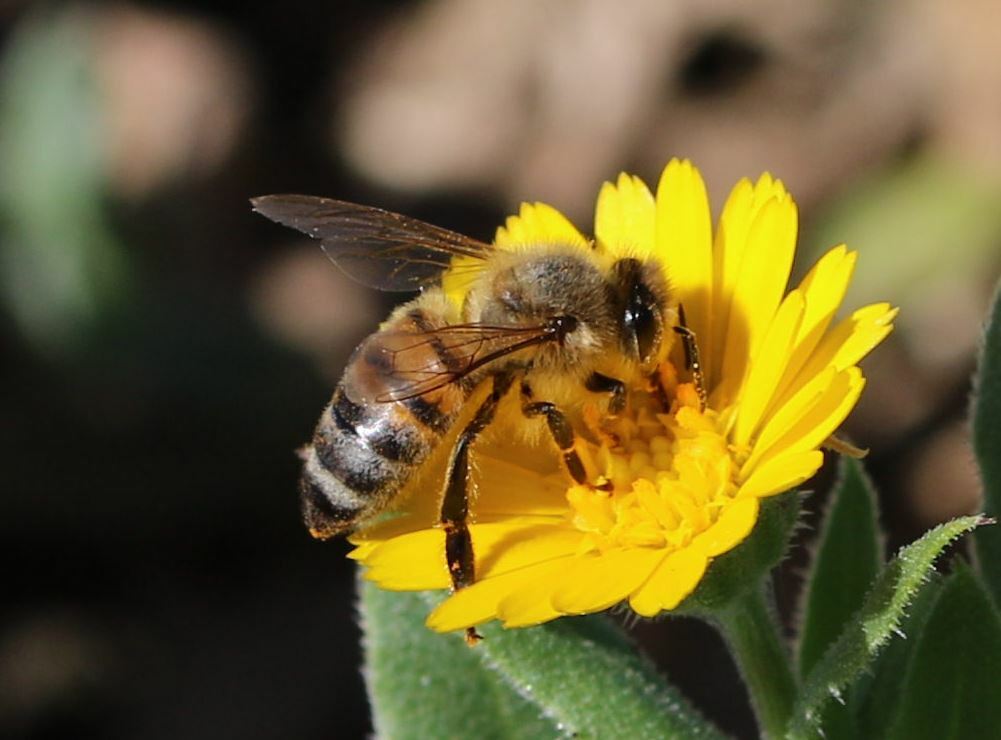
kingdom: Animalia
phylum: Arthropoda
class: Insecta
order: Hymenoptera
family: Apidae
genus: Apis
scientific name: Apis mellifera
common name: Honey bee
